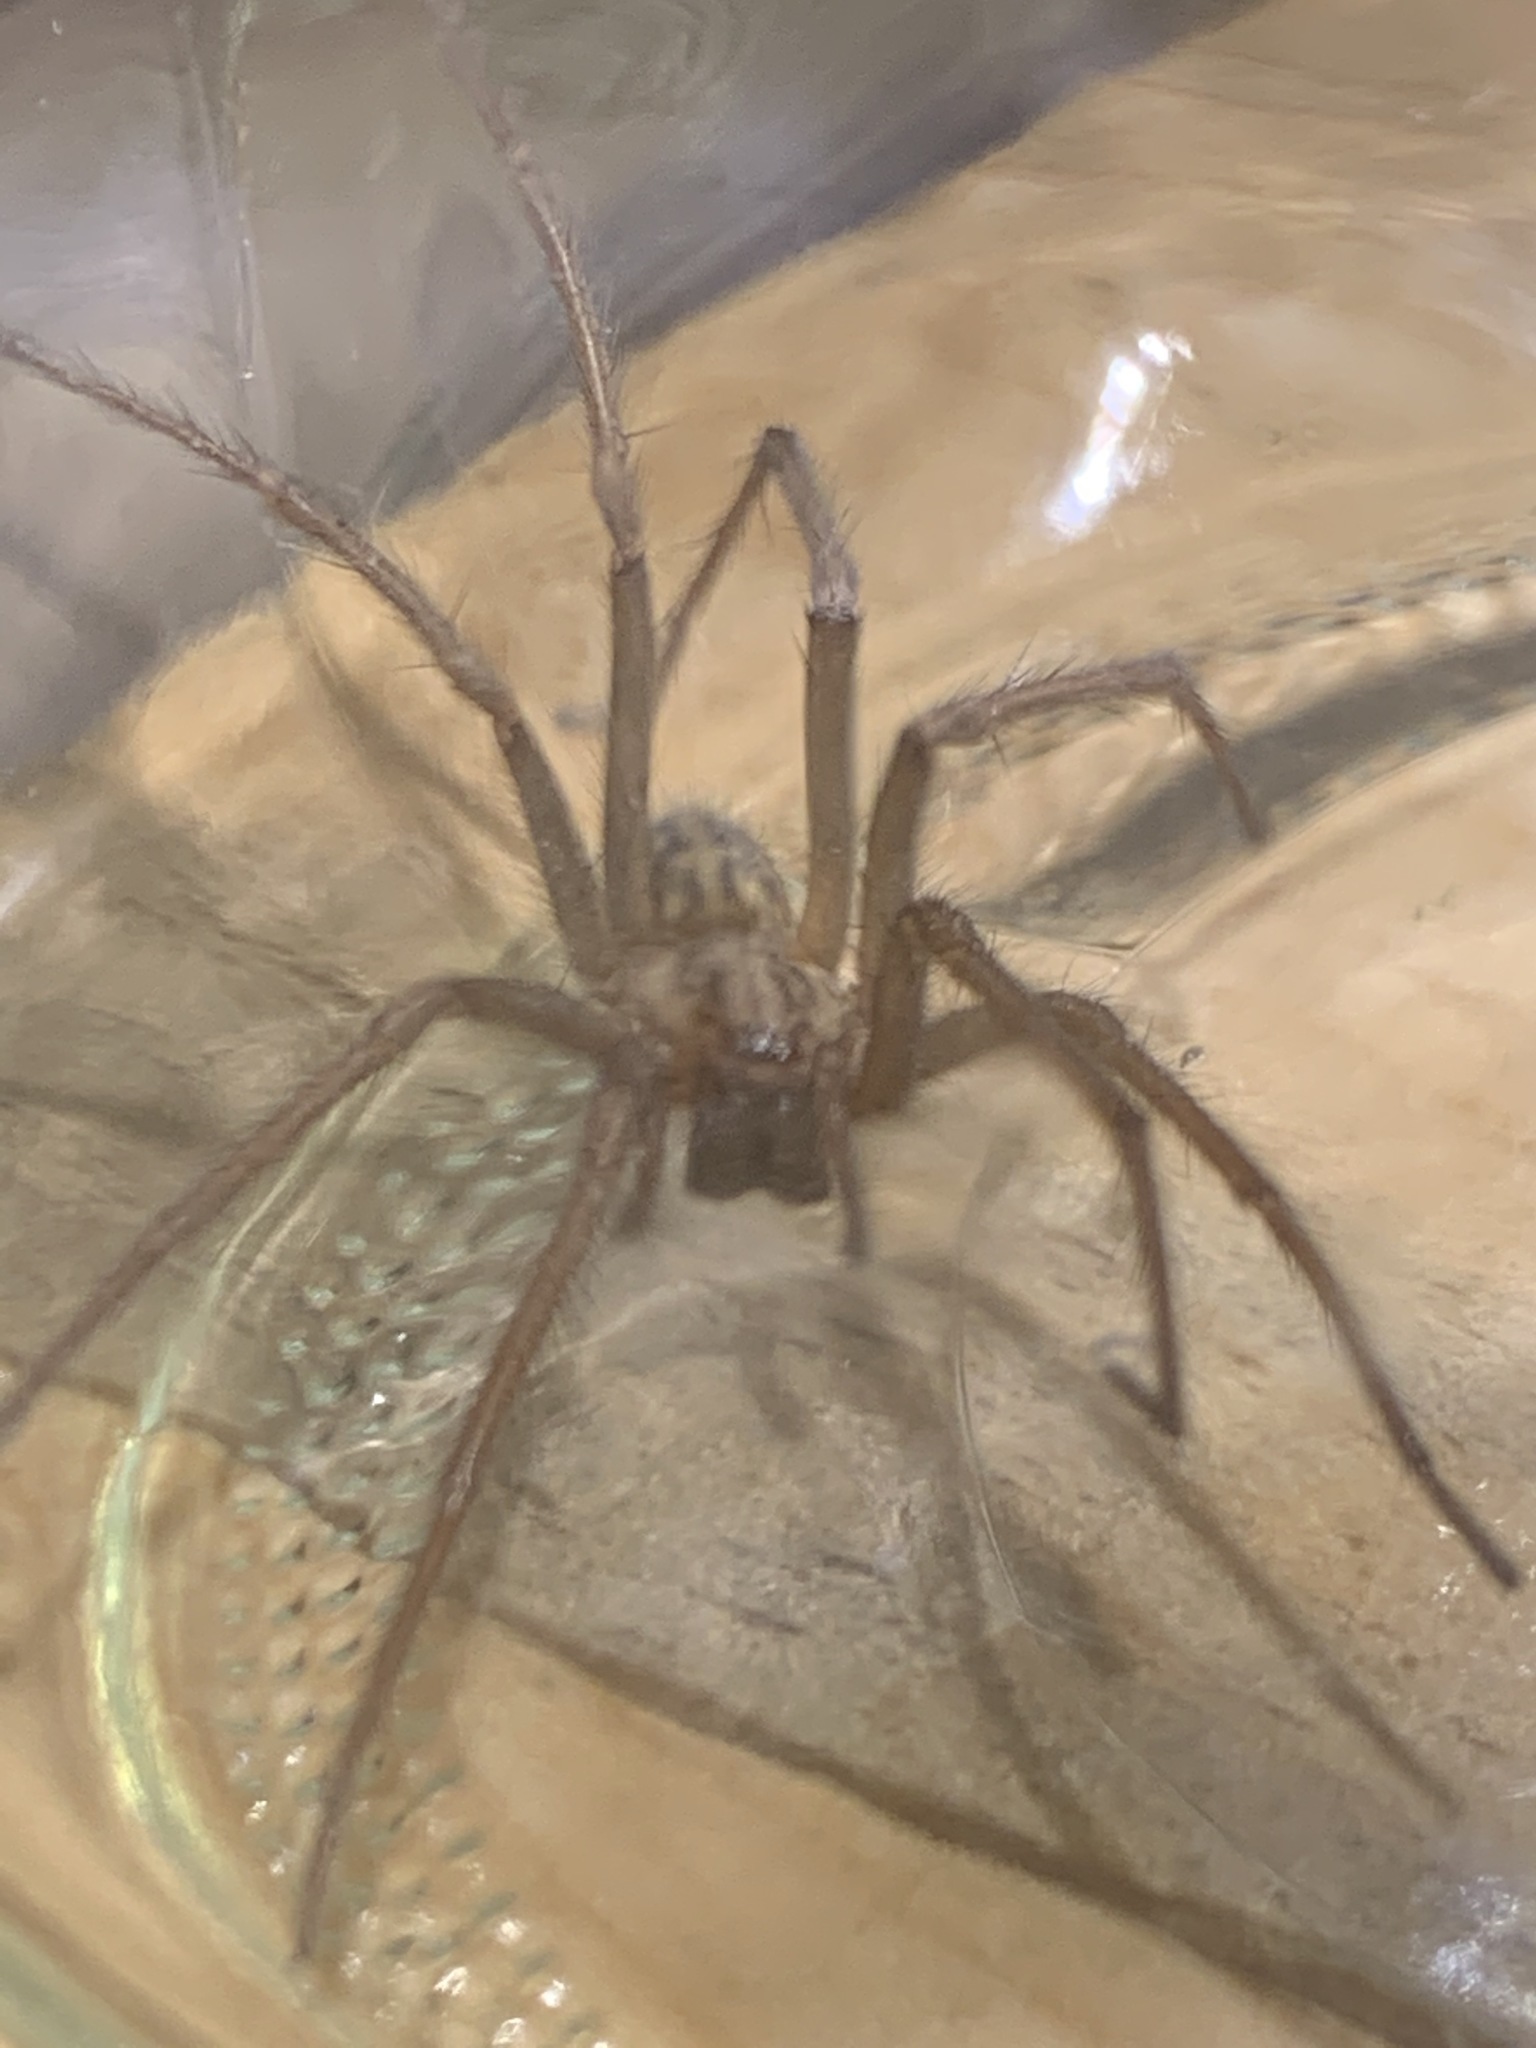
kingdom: Animalia
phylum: Arthropoda
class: Arachnida
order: Araneae
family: Agelenidae
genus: Eratigena
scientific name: Eratigena duellica
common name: Giant house spider
